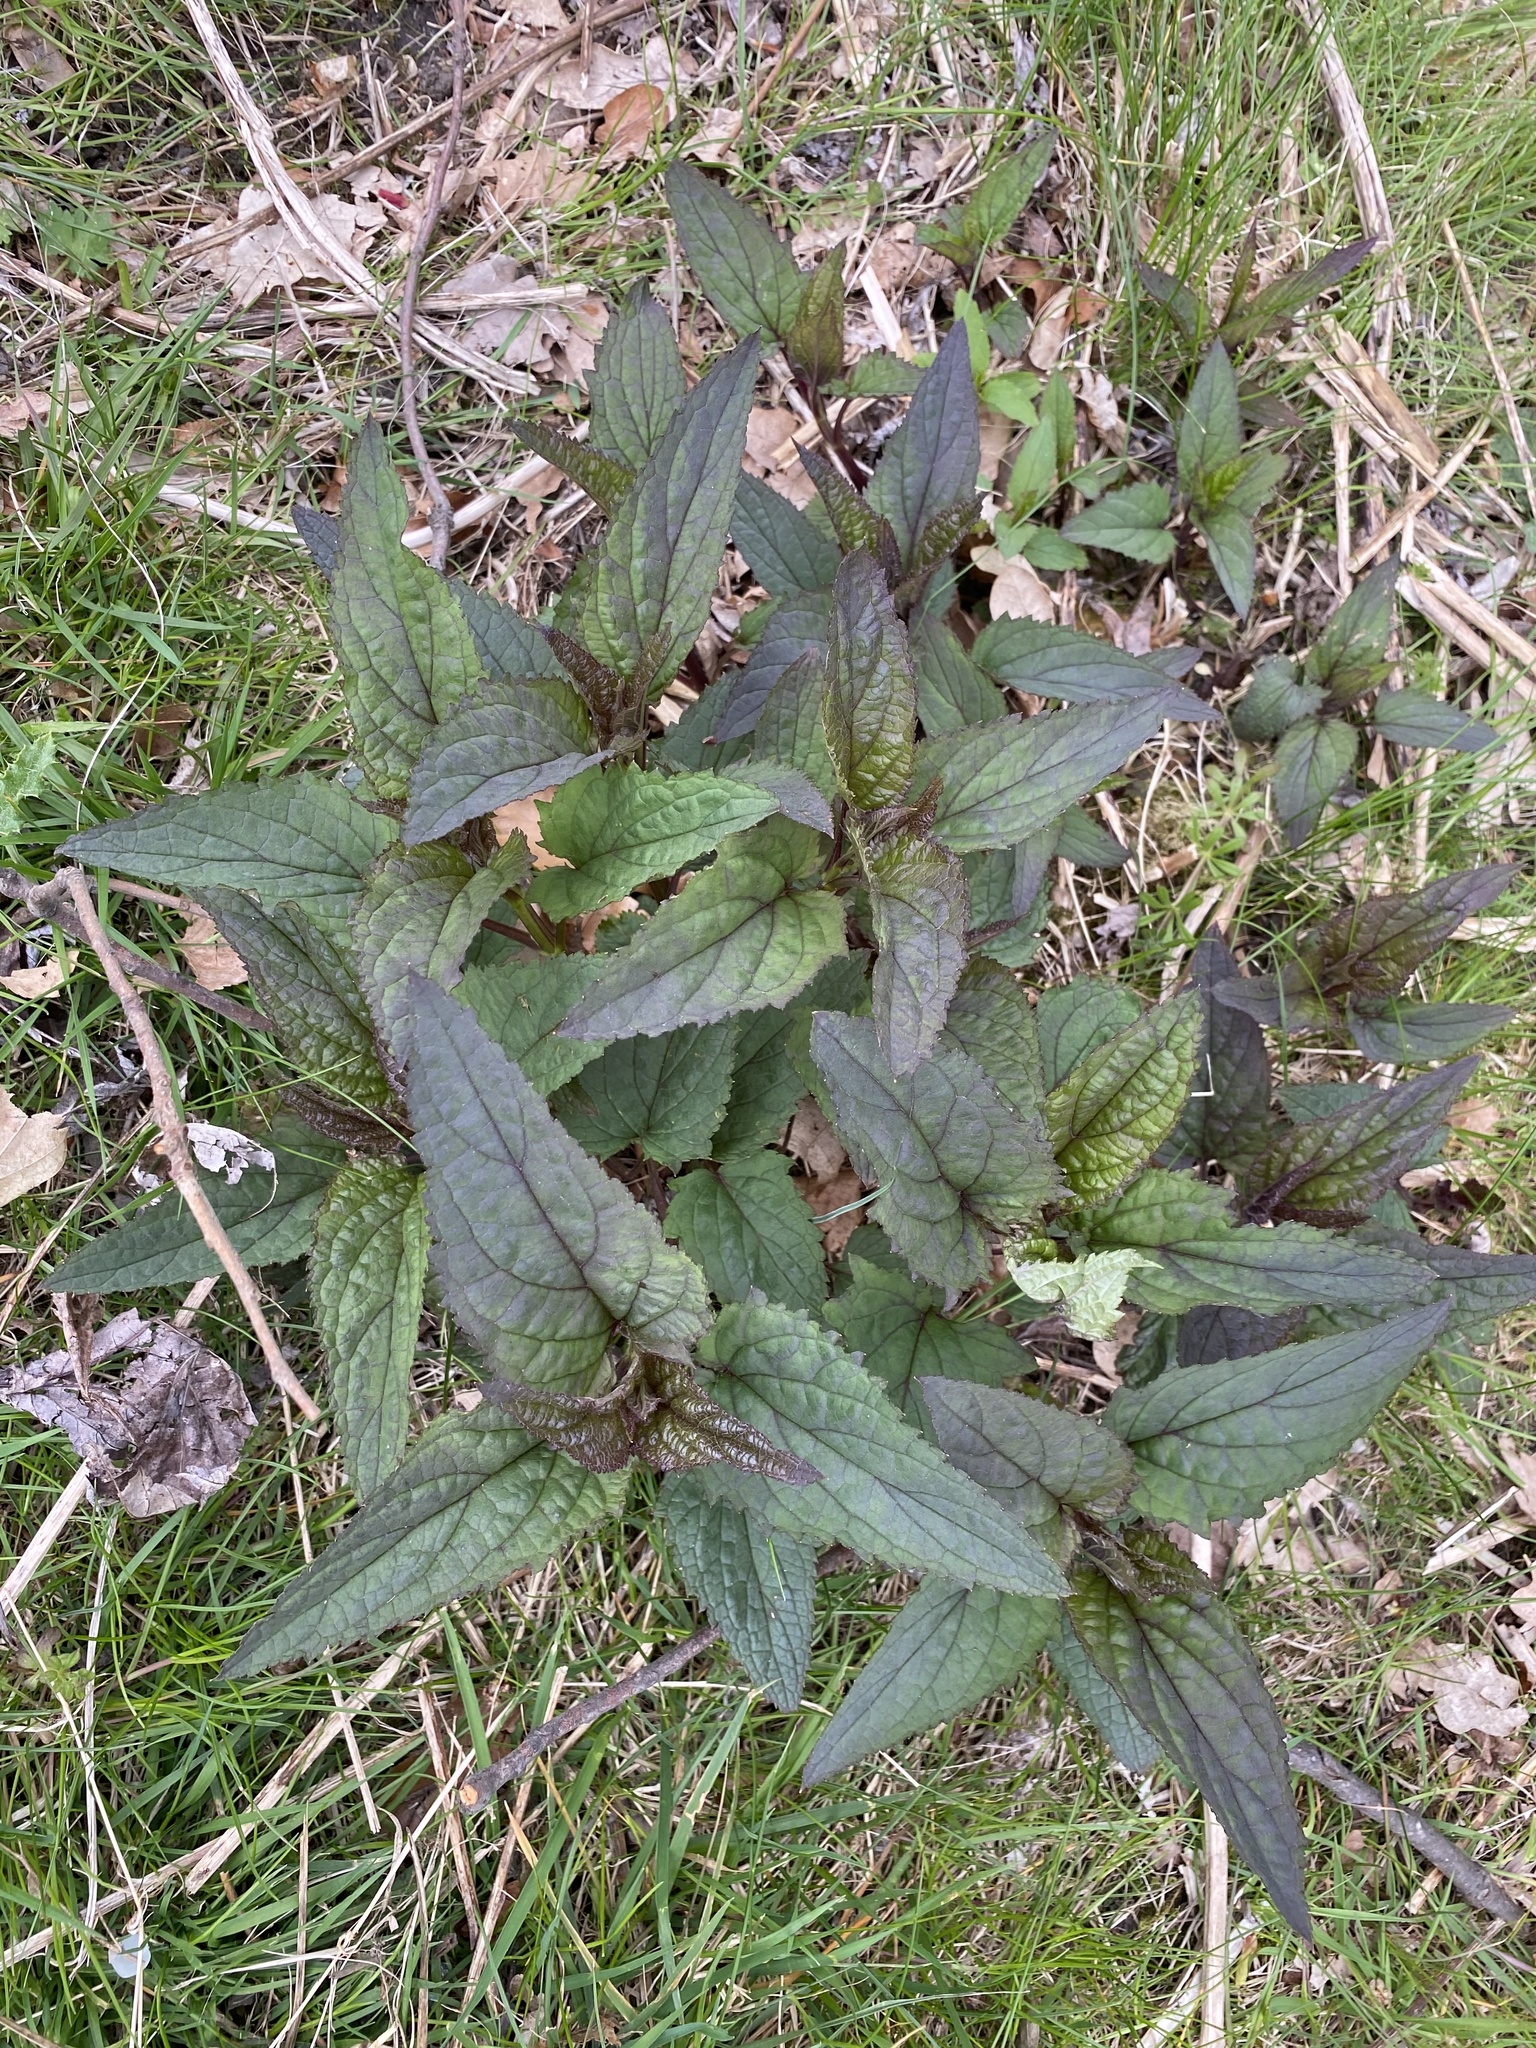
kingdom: Plantae
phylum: Tracheophyta
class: Magnoliopsida
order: Lamiales
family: Scrophulariaceae
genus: Scrophularia
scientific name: Scrophularia nodosa
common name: Common figwort
